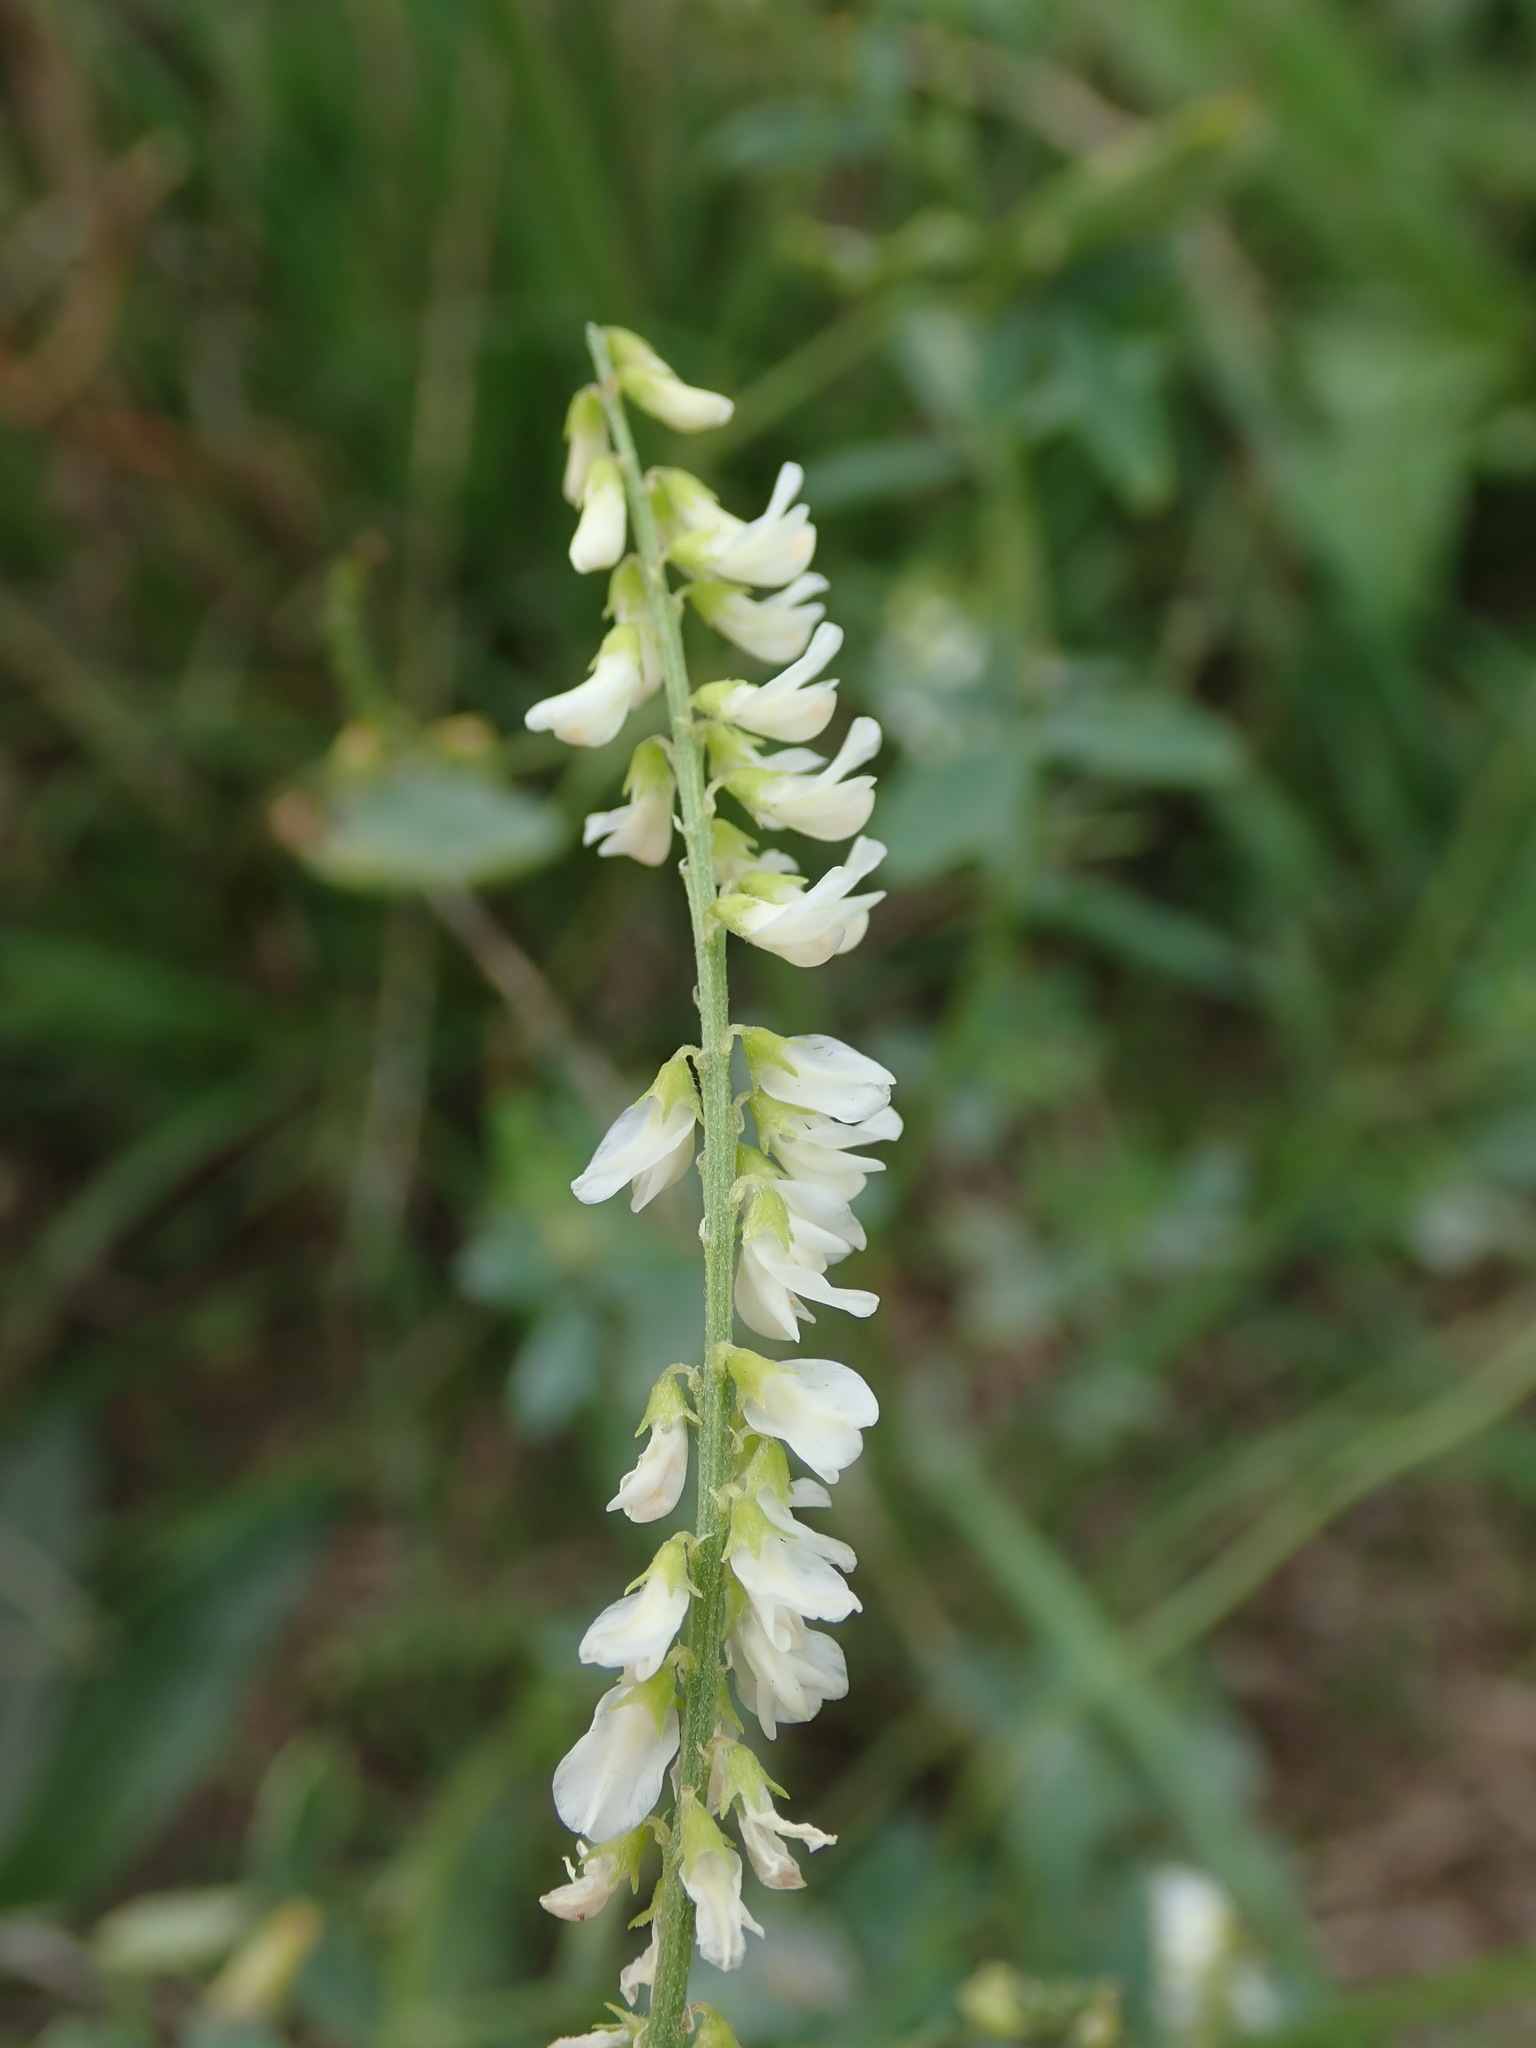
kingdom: Plantae
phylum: Tracheophyta
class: Magnoliopsida
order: Fabales
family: Fabaceae
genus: Melilotus
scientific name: Melilotus albus
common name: White melilot
